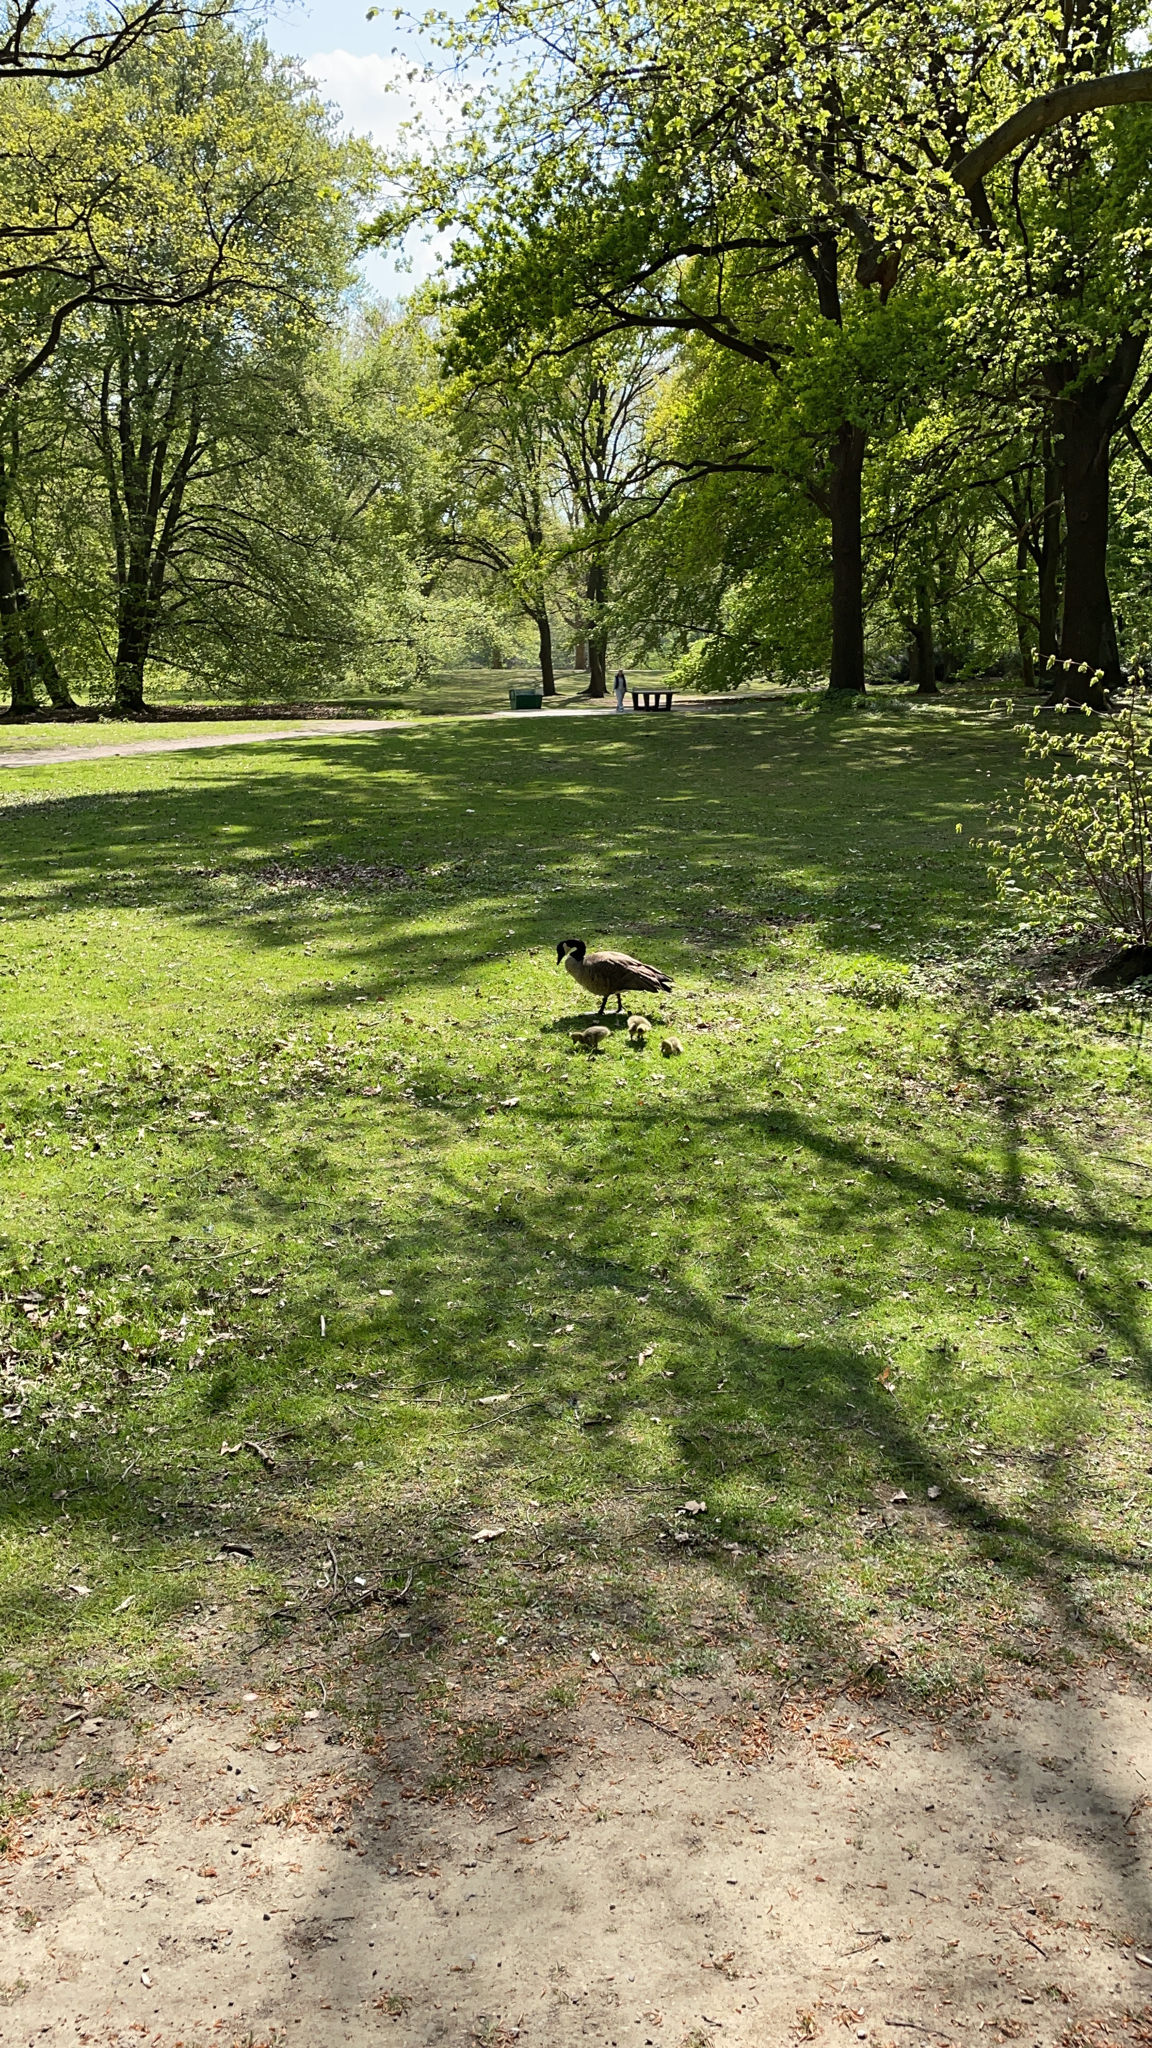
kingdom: Animalia
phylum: Chordata
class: Aves
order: Anseriformes
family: Anatidae
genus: Branta
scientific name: Branta canadensis
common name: Canada goose
